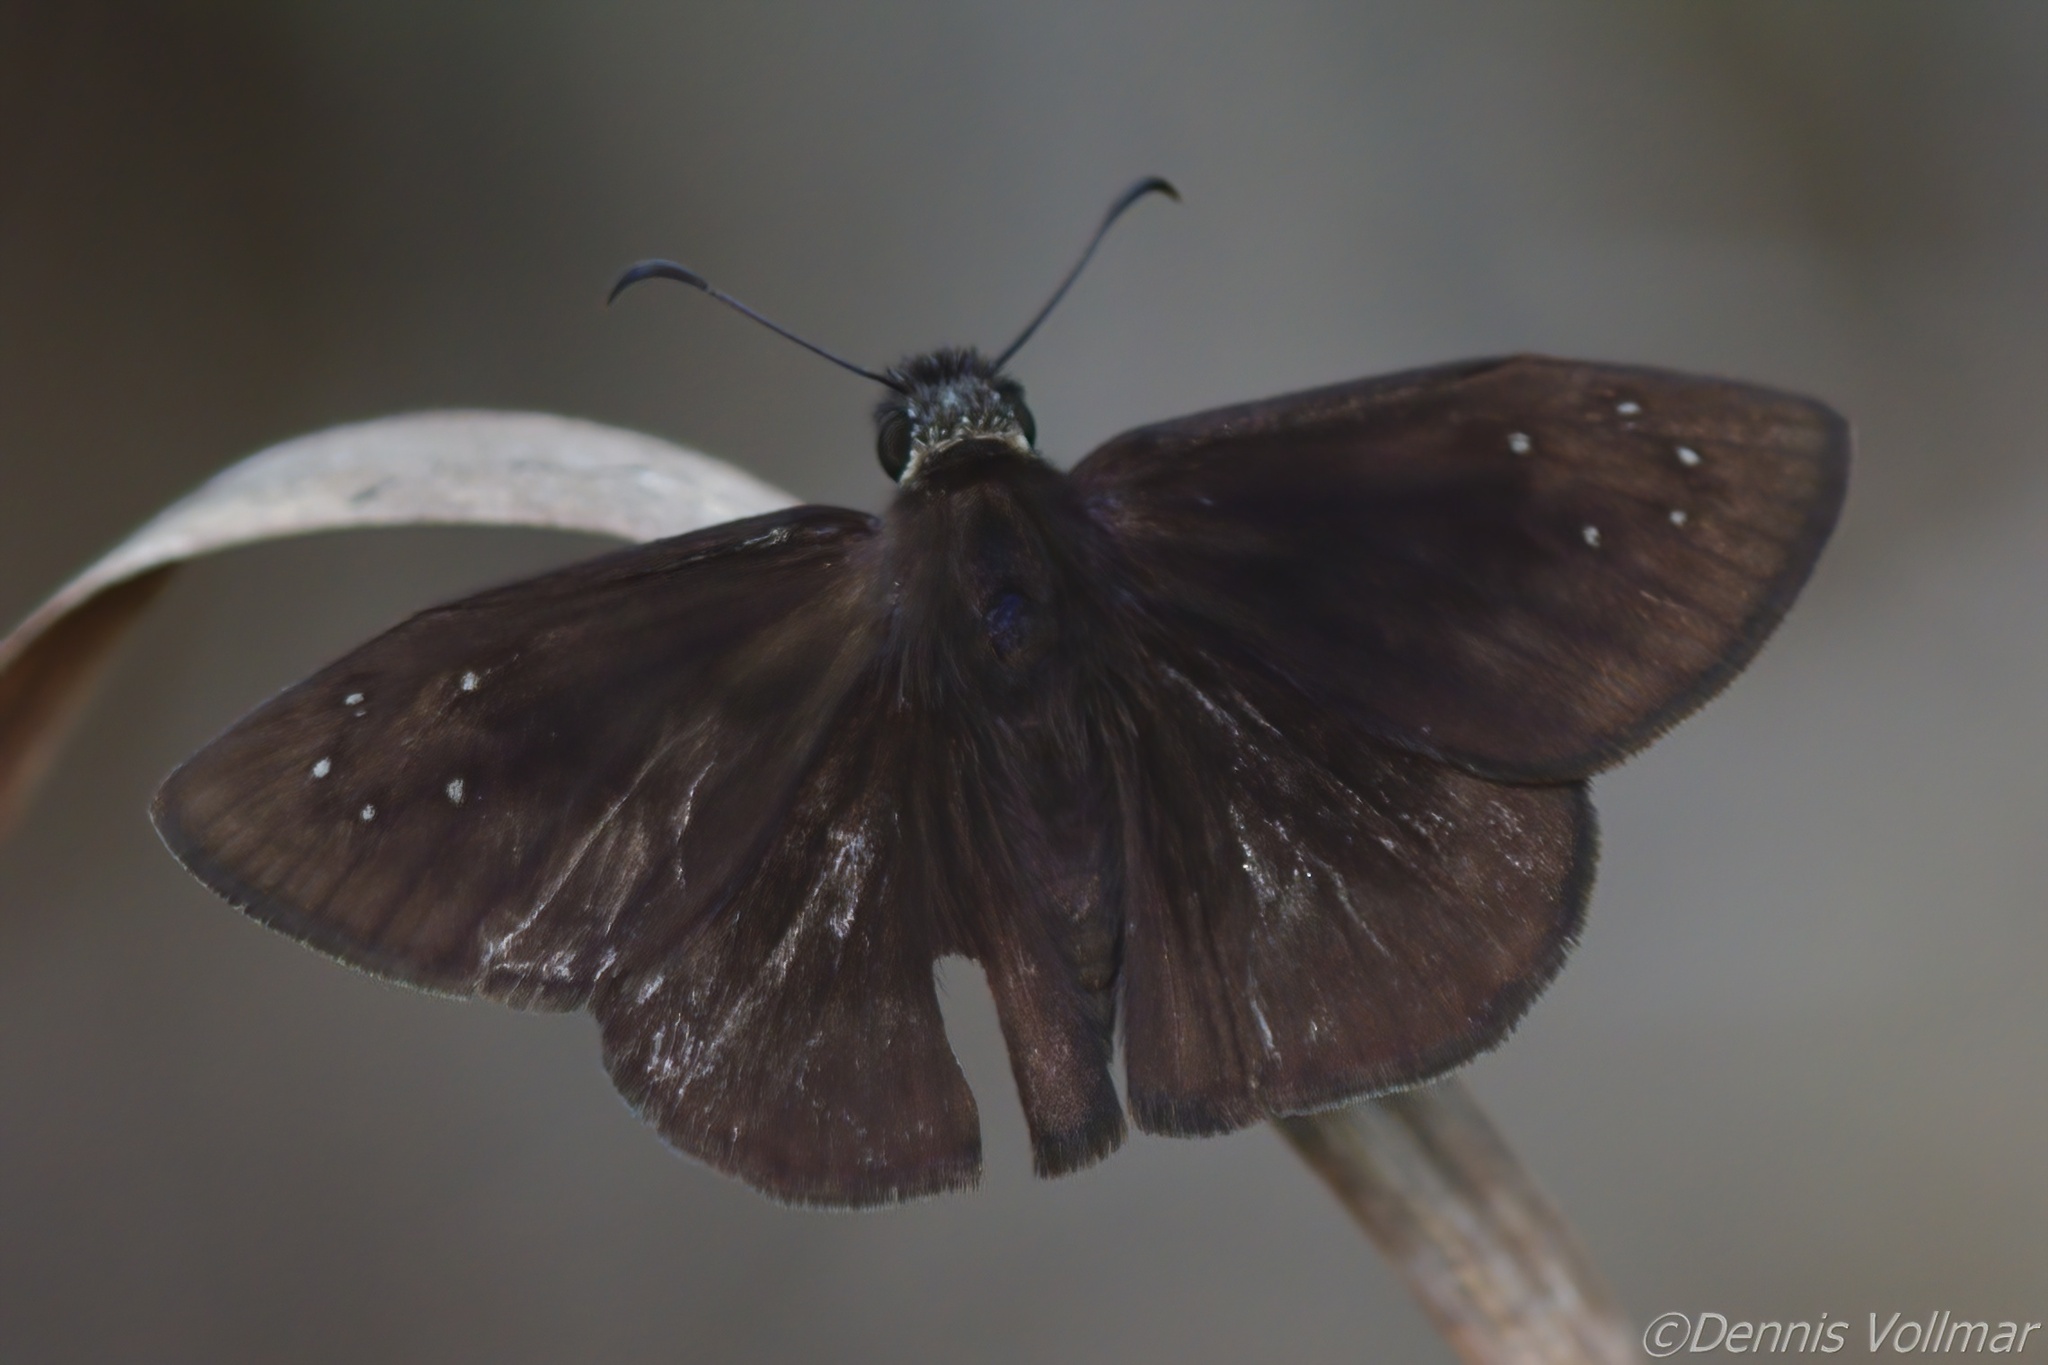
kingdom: Animalia
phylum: Arthropoda
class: Insecta
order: Lepidoptera
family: Hesperiidae
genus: Ephyriades
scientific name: Ephyriades brunnea
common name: Florida duskywing
